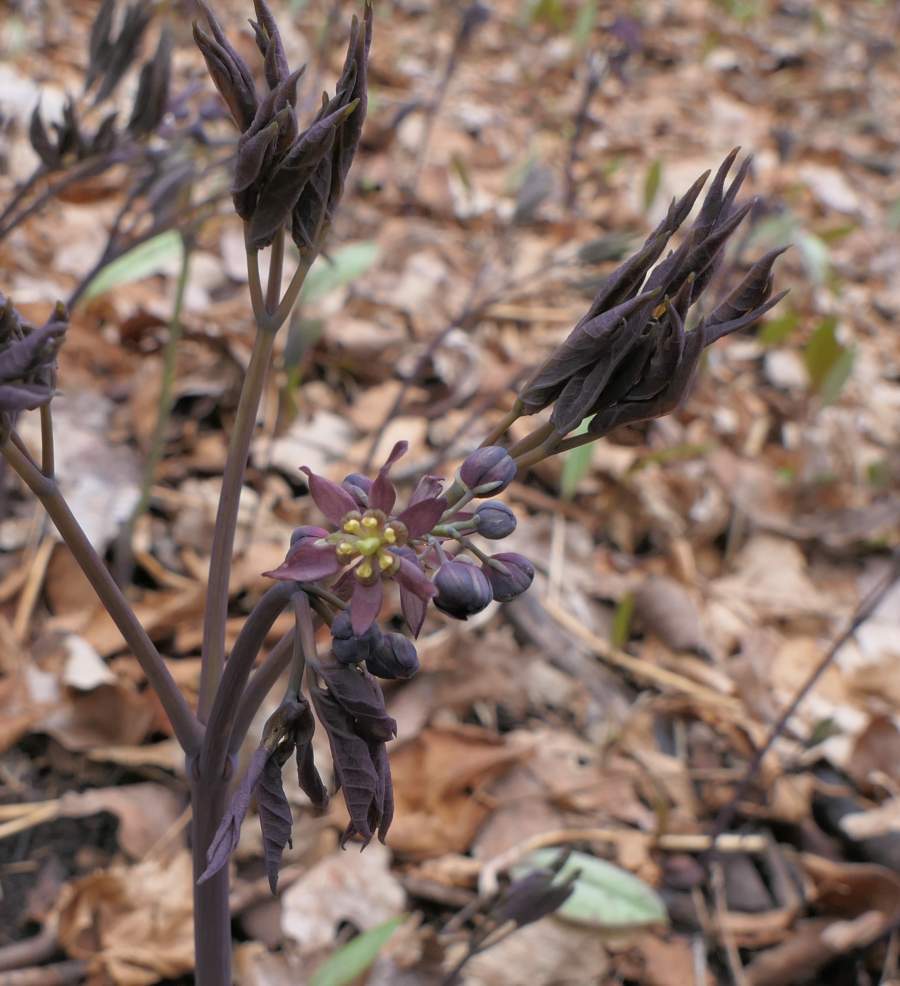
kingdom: Plantae
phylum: Tracheophyta
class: Magnoliopsida
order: Ranunculales
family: Berberidaceae
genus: Caulophyllum
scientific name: Caulophyllum giganteum
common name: Blue cohosh
